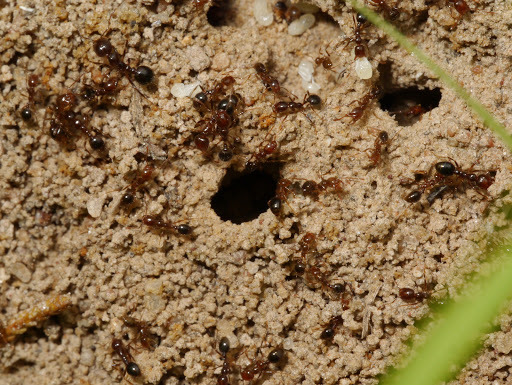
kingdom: Animalia
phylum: Arthropoda
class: Insecta
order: Hymenoptera
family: Formicidae
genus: Solenopsis
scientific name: Solenopsis invicta
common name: Red imported fire ant
